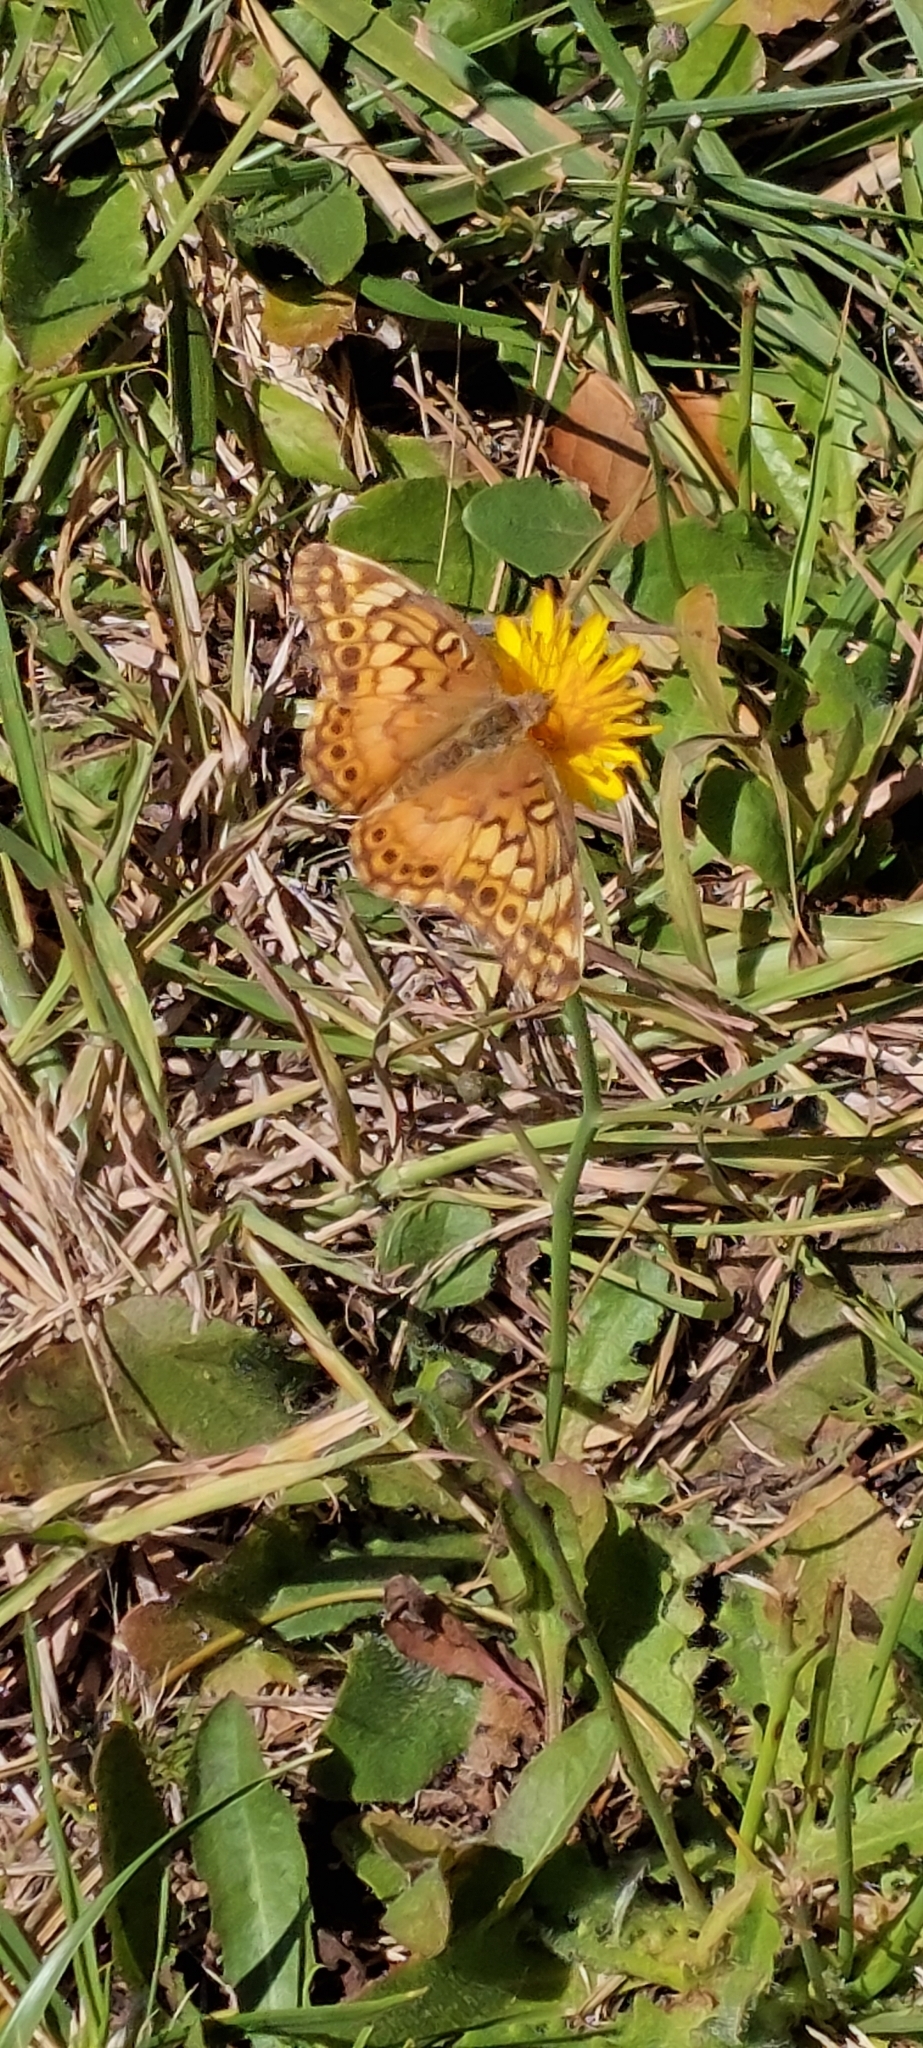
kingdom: Animalia
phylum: Arthropoda
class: Insecta
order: Lepidoptera
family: Nymphalidae
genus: Euptoieta
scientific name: Euptoieta hortensia
